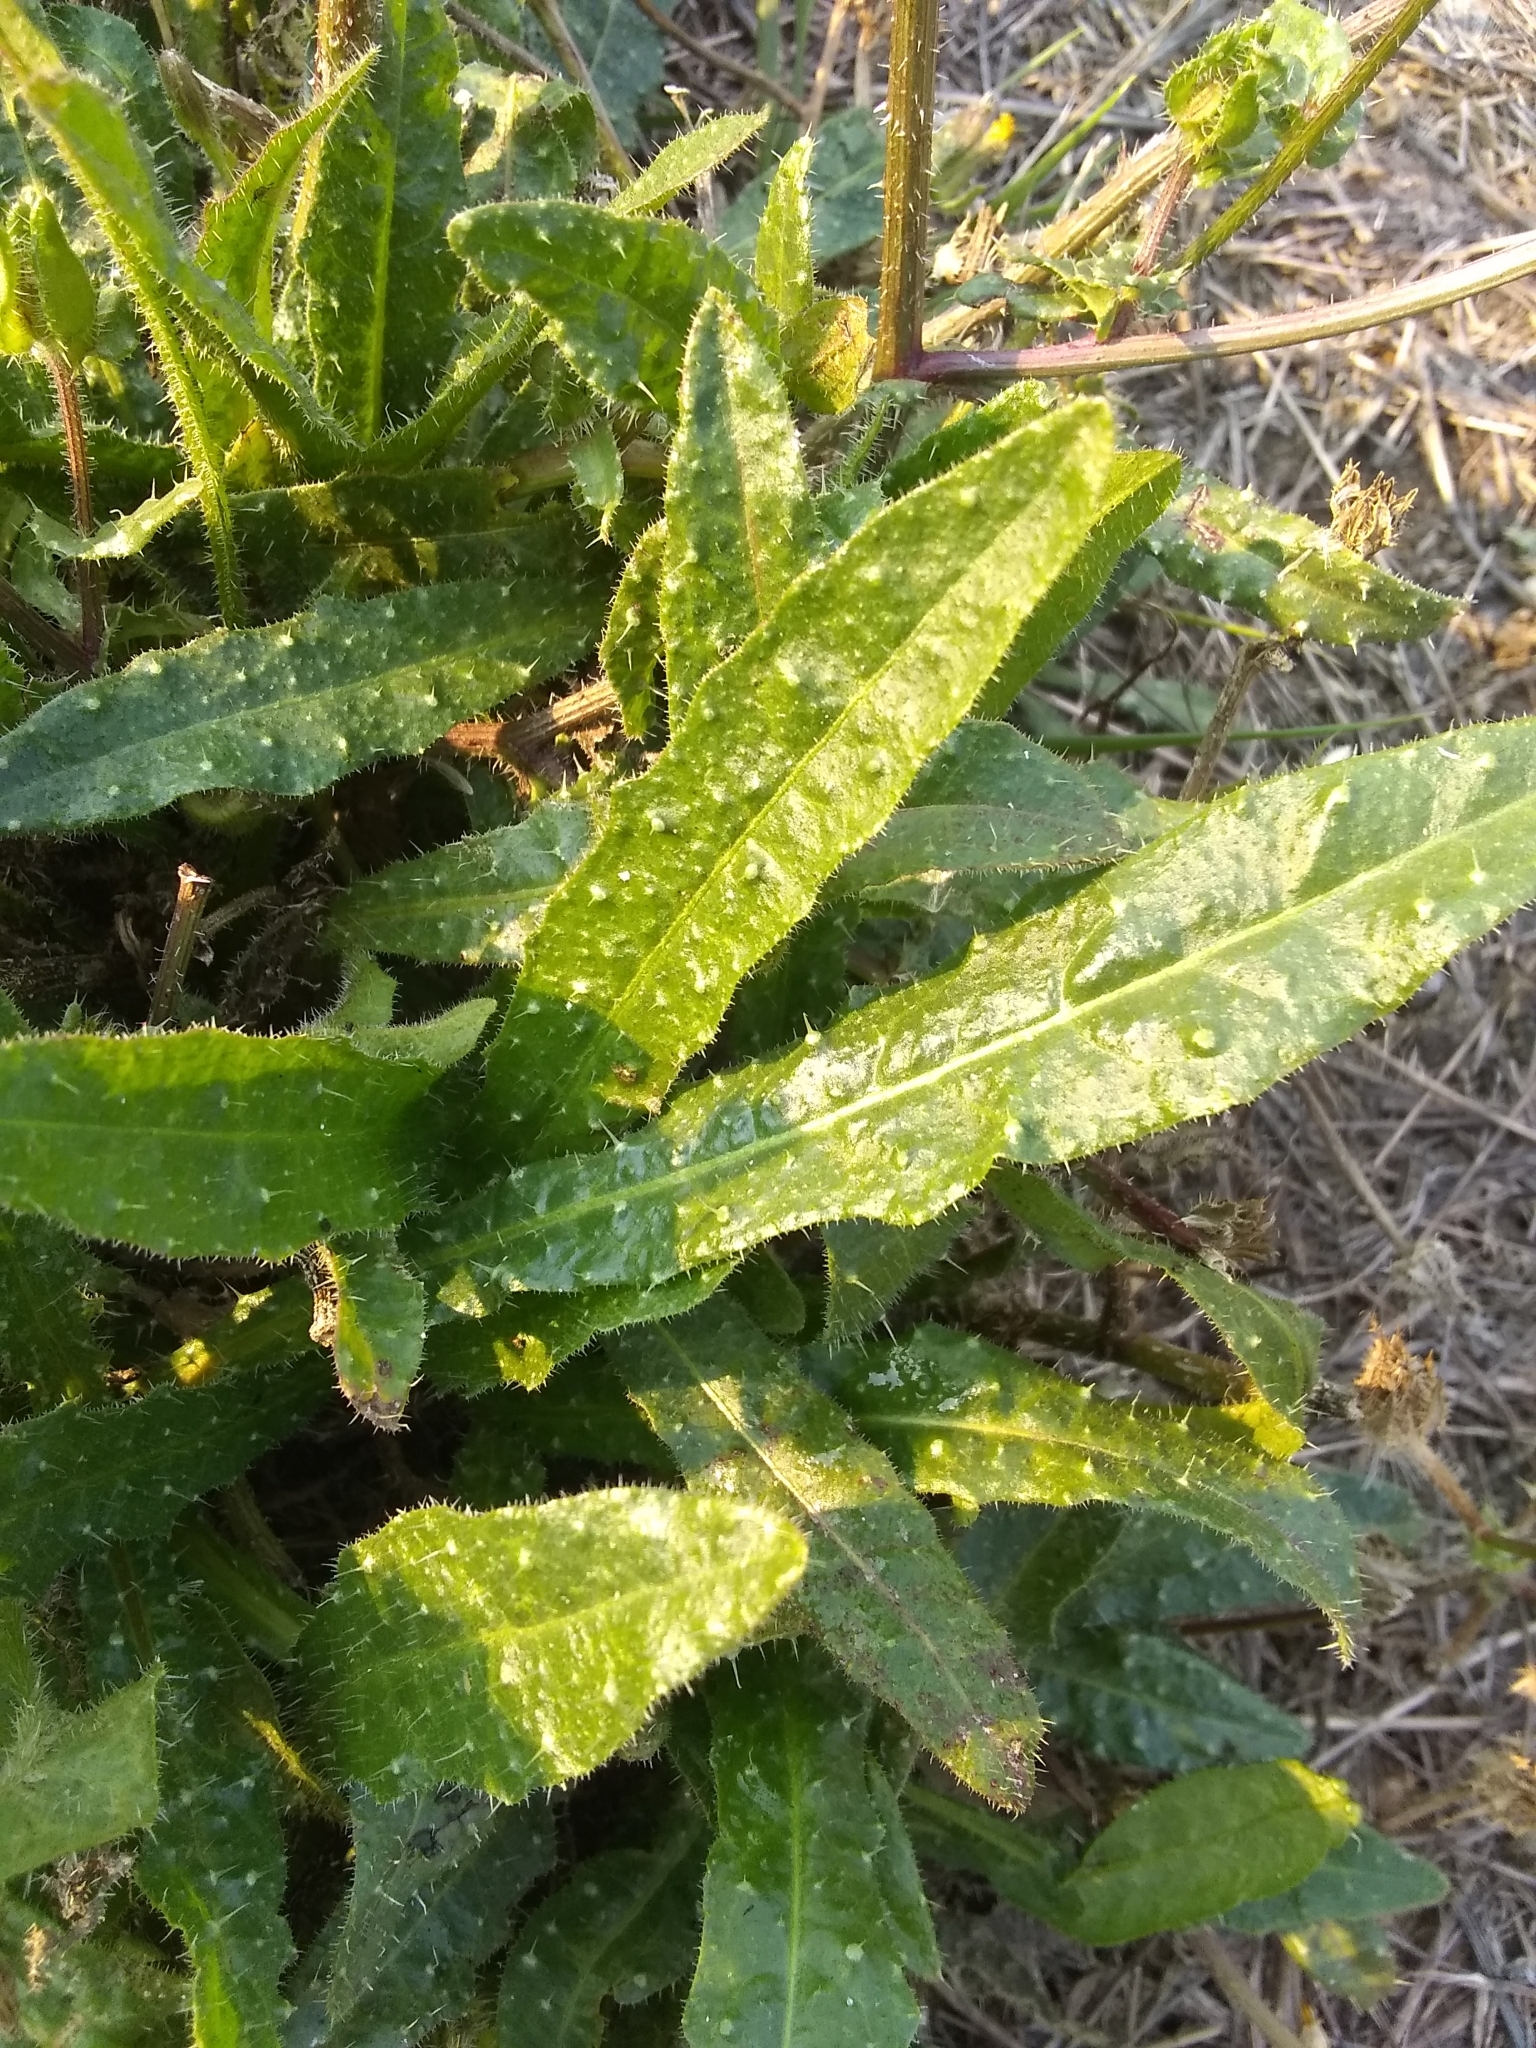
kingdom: Plantae
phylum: Tracheophyta
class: Magnoliopsida
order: Asterales
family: Asteraceae
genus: Helminthotheca
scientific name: Helminthotheca echioides
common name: Ox-tongue
